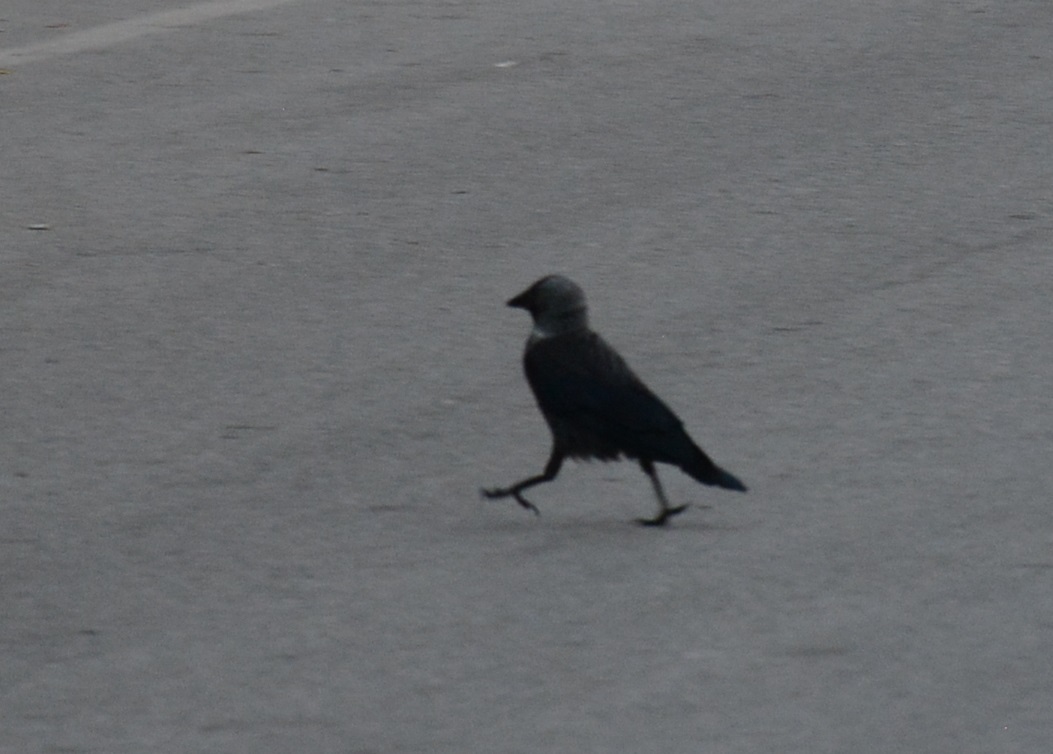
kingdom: Animalia
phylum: Chordata
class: Aves
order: Passeriformes
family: Corvidae
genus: Coloeus
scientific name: Coloeus monedula
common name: Western jackdaw
